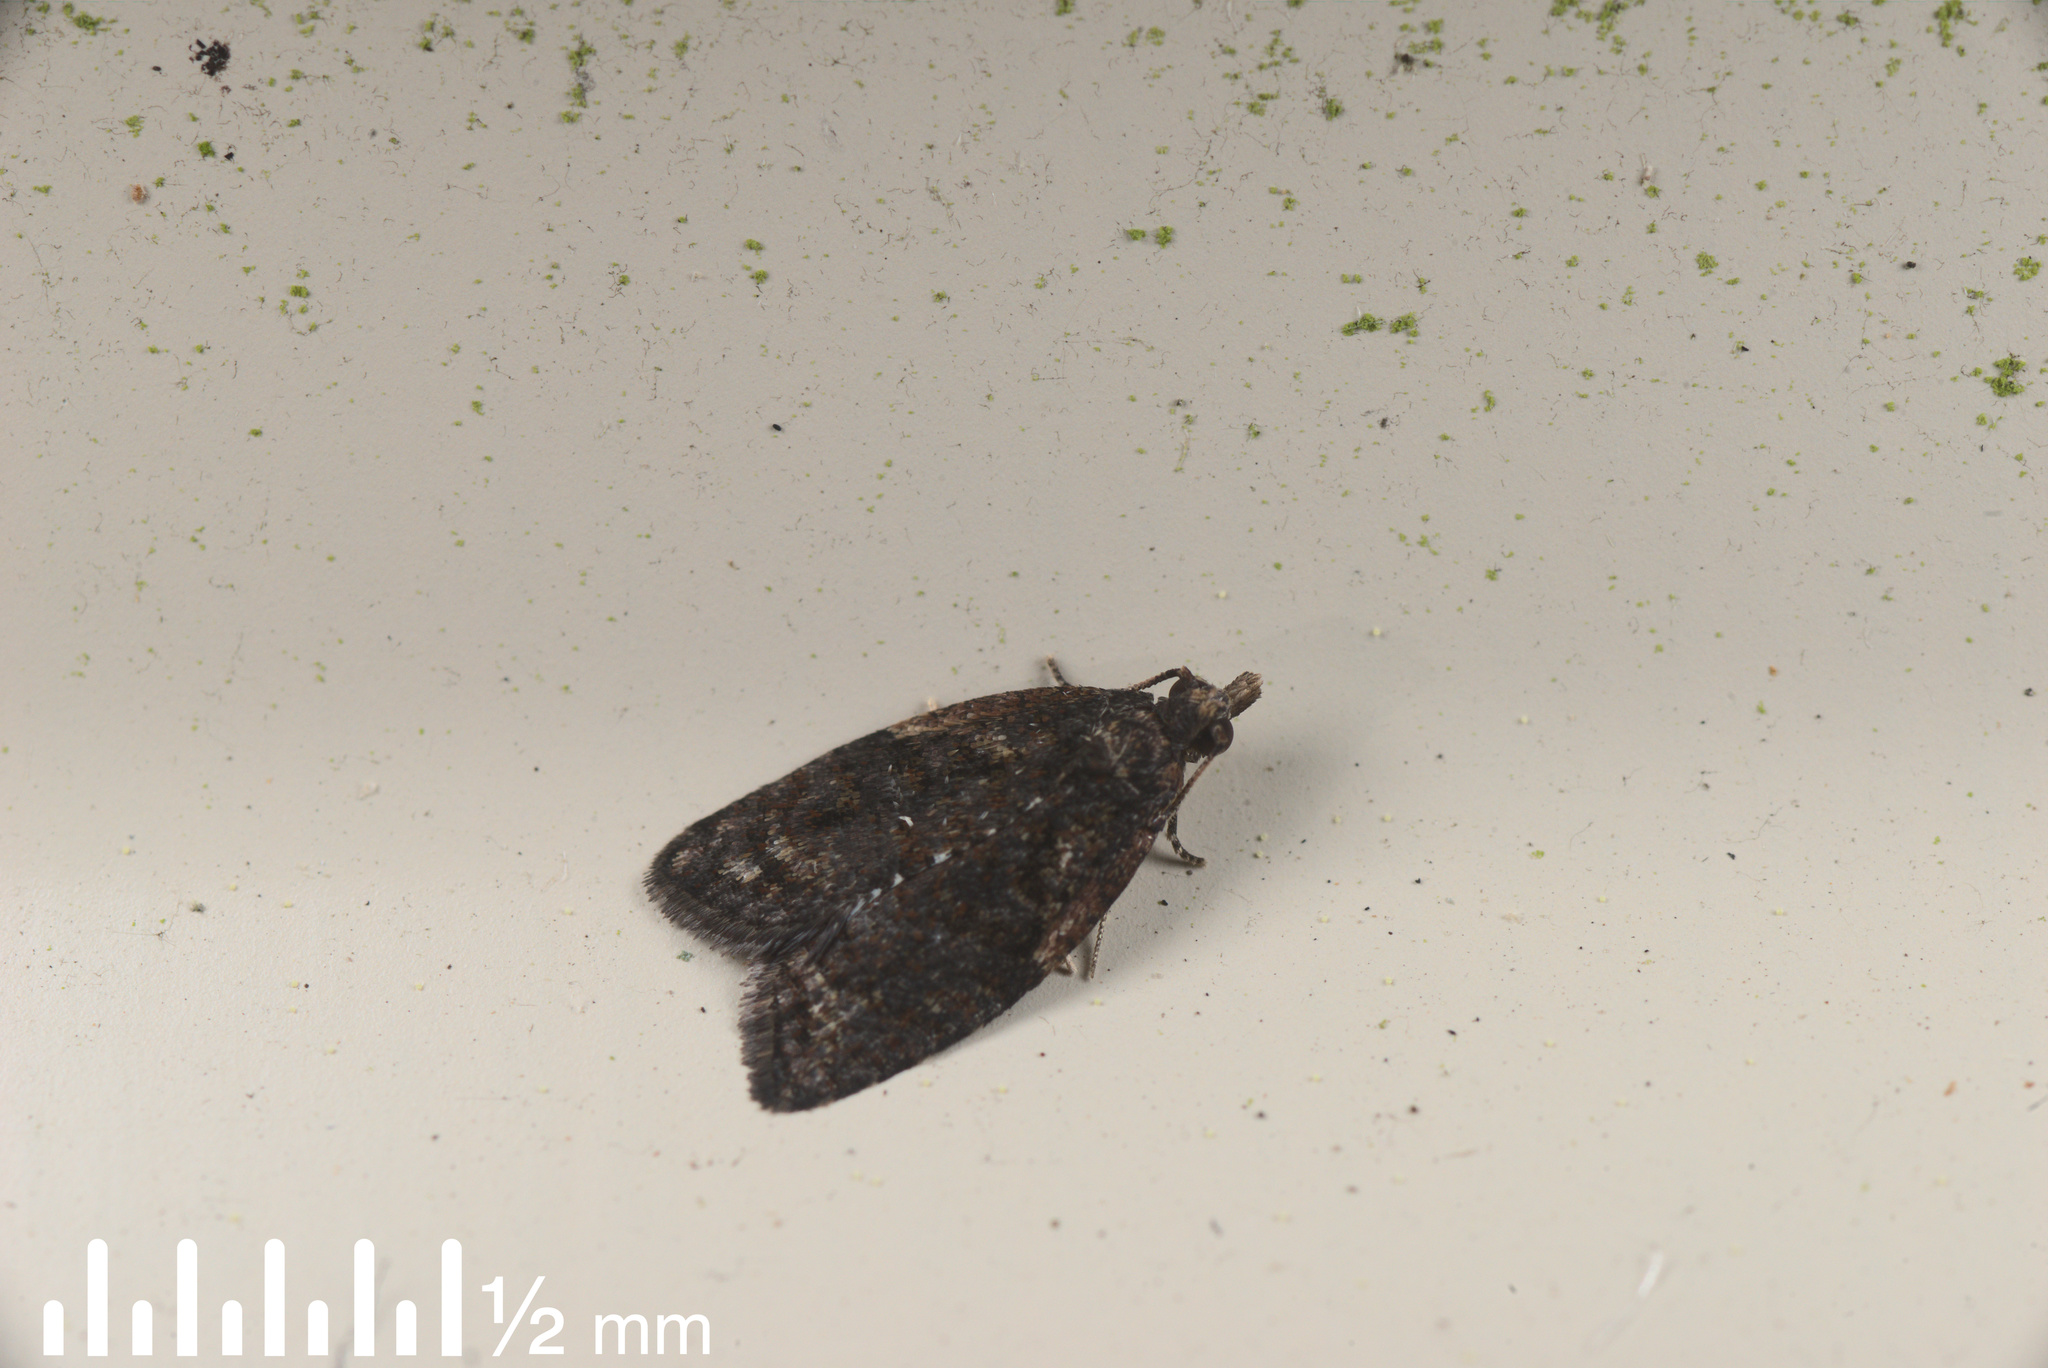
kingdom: Animalia
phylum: Arthropoda
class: Insecta
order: Lepidoptera
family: Tortricidae
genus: Capua
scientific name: Capua intractana
